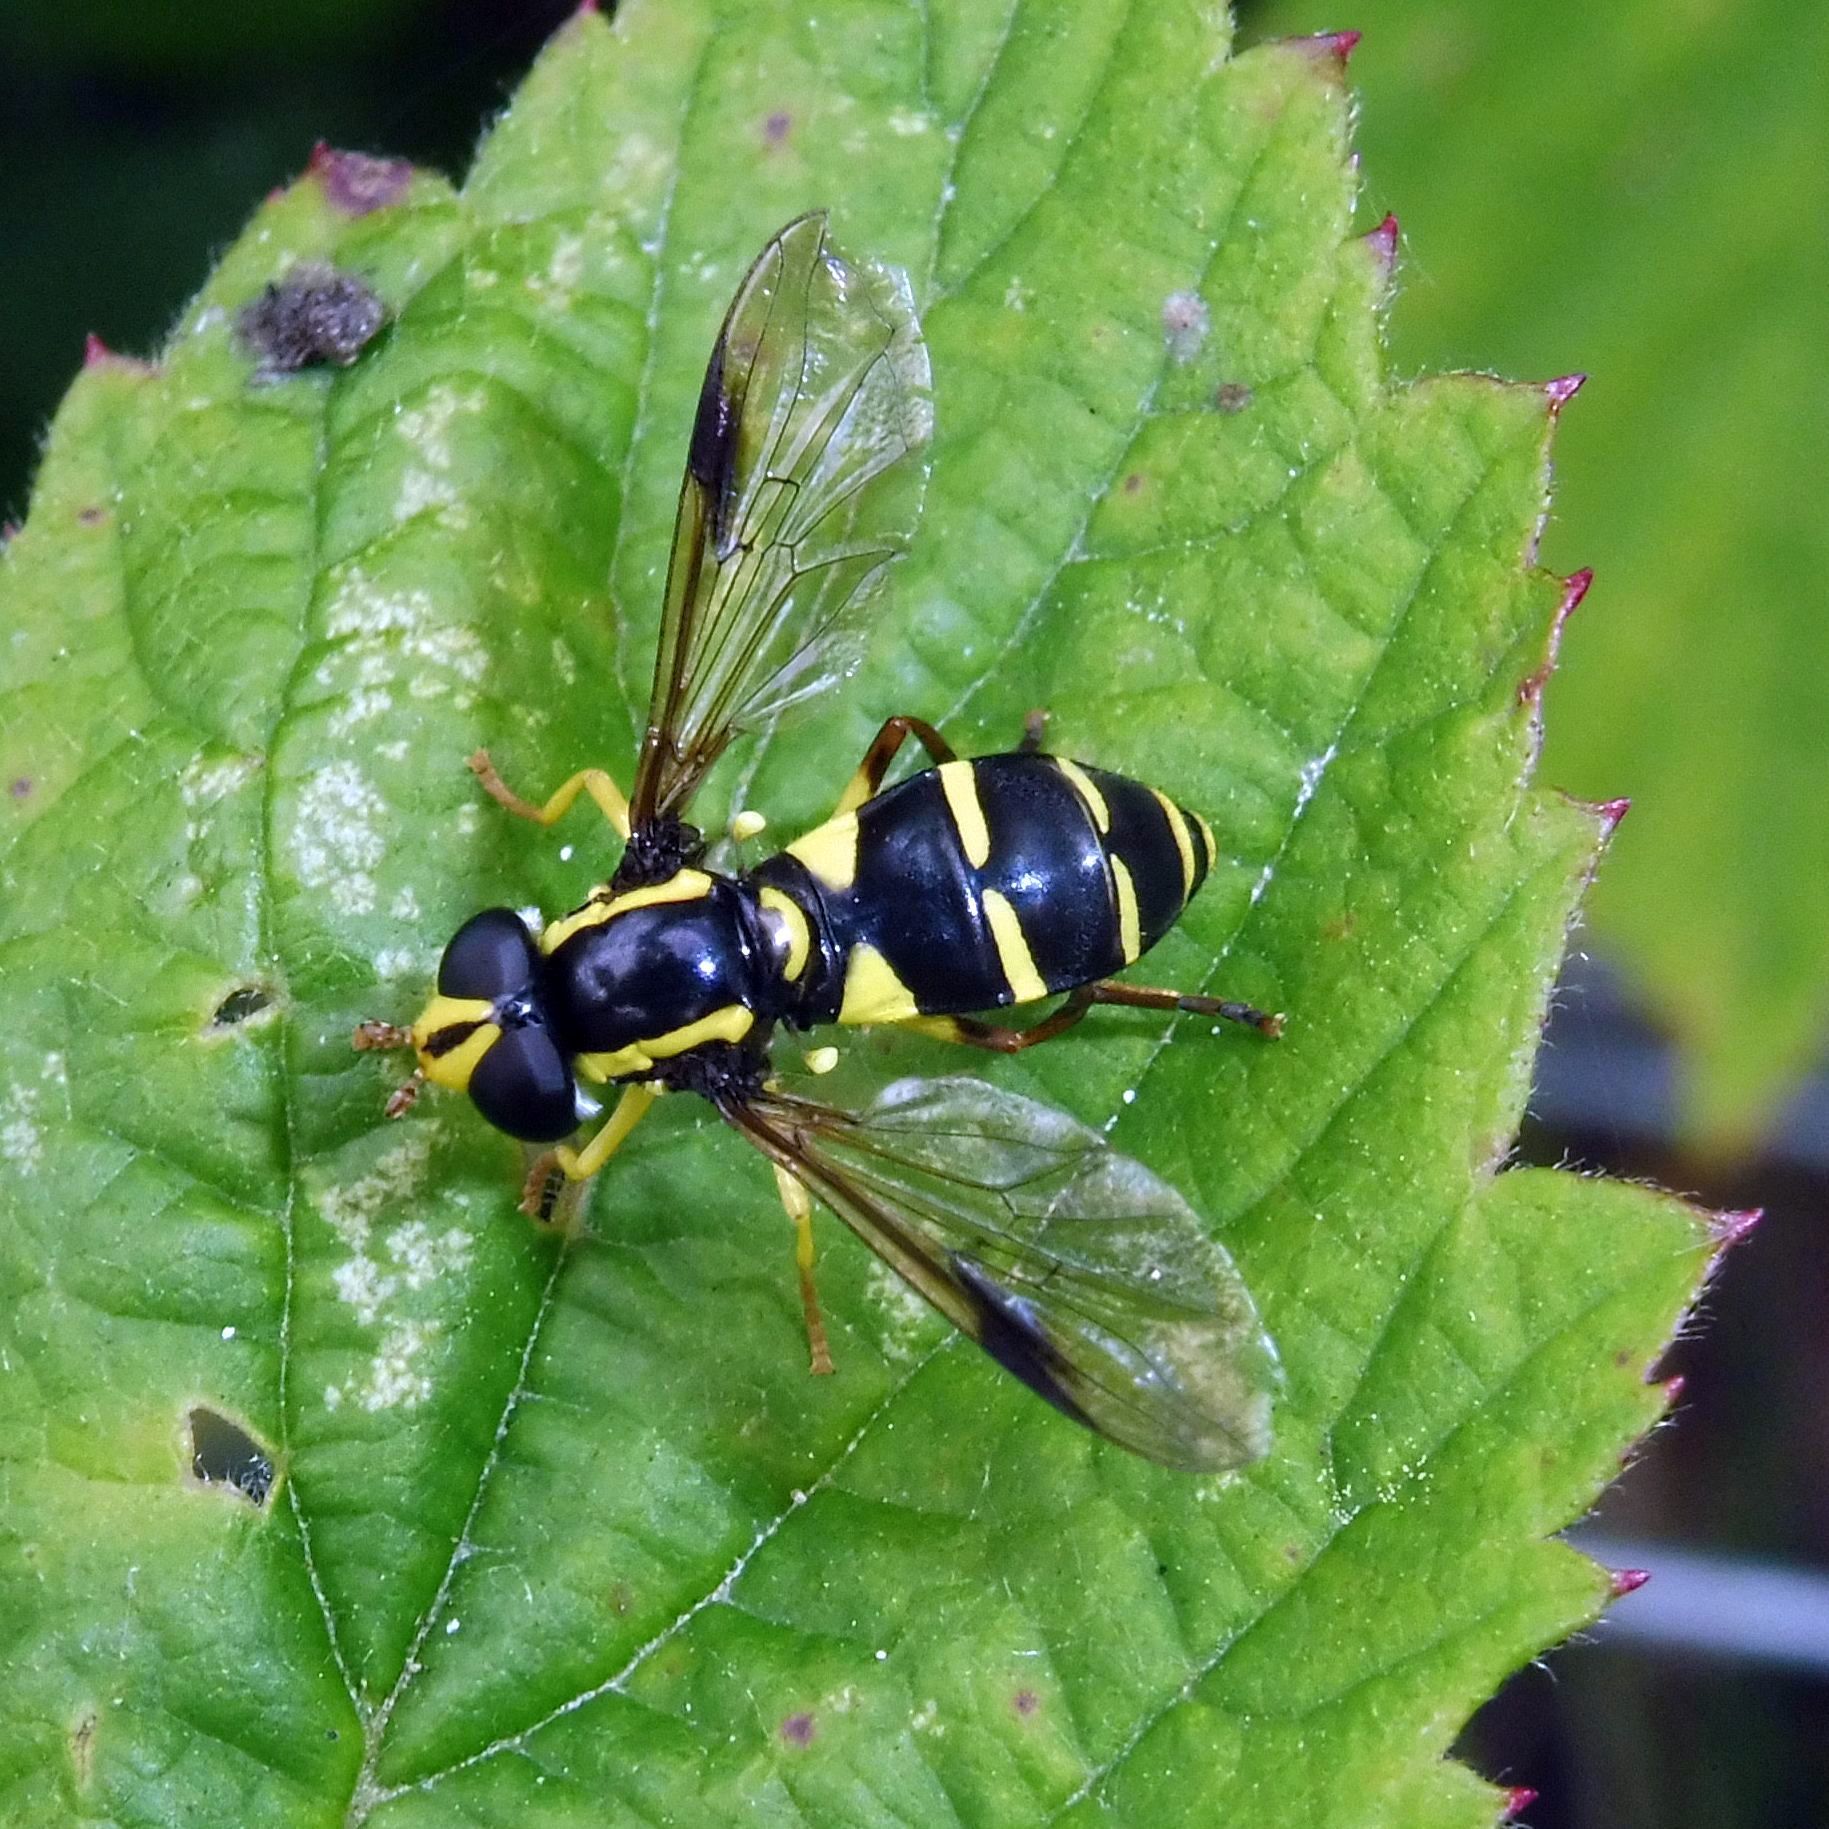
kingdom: Animalia
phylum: Arthropoda
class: Insecta
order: Diptera
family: Syrphidae
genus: Philhelius
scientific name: Philhelius pedissequum
